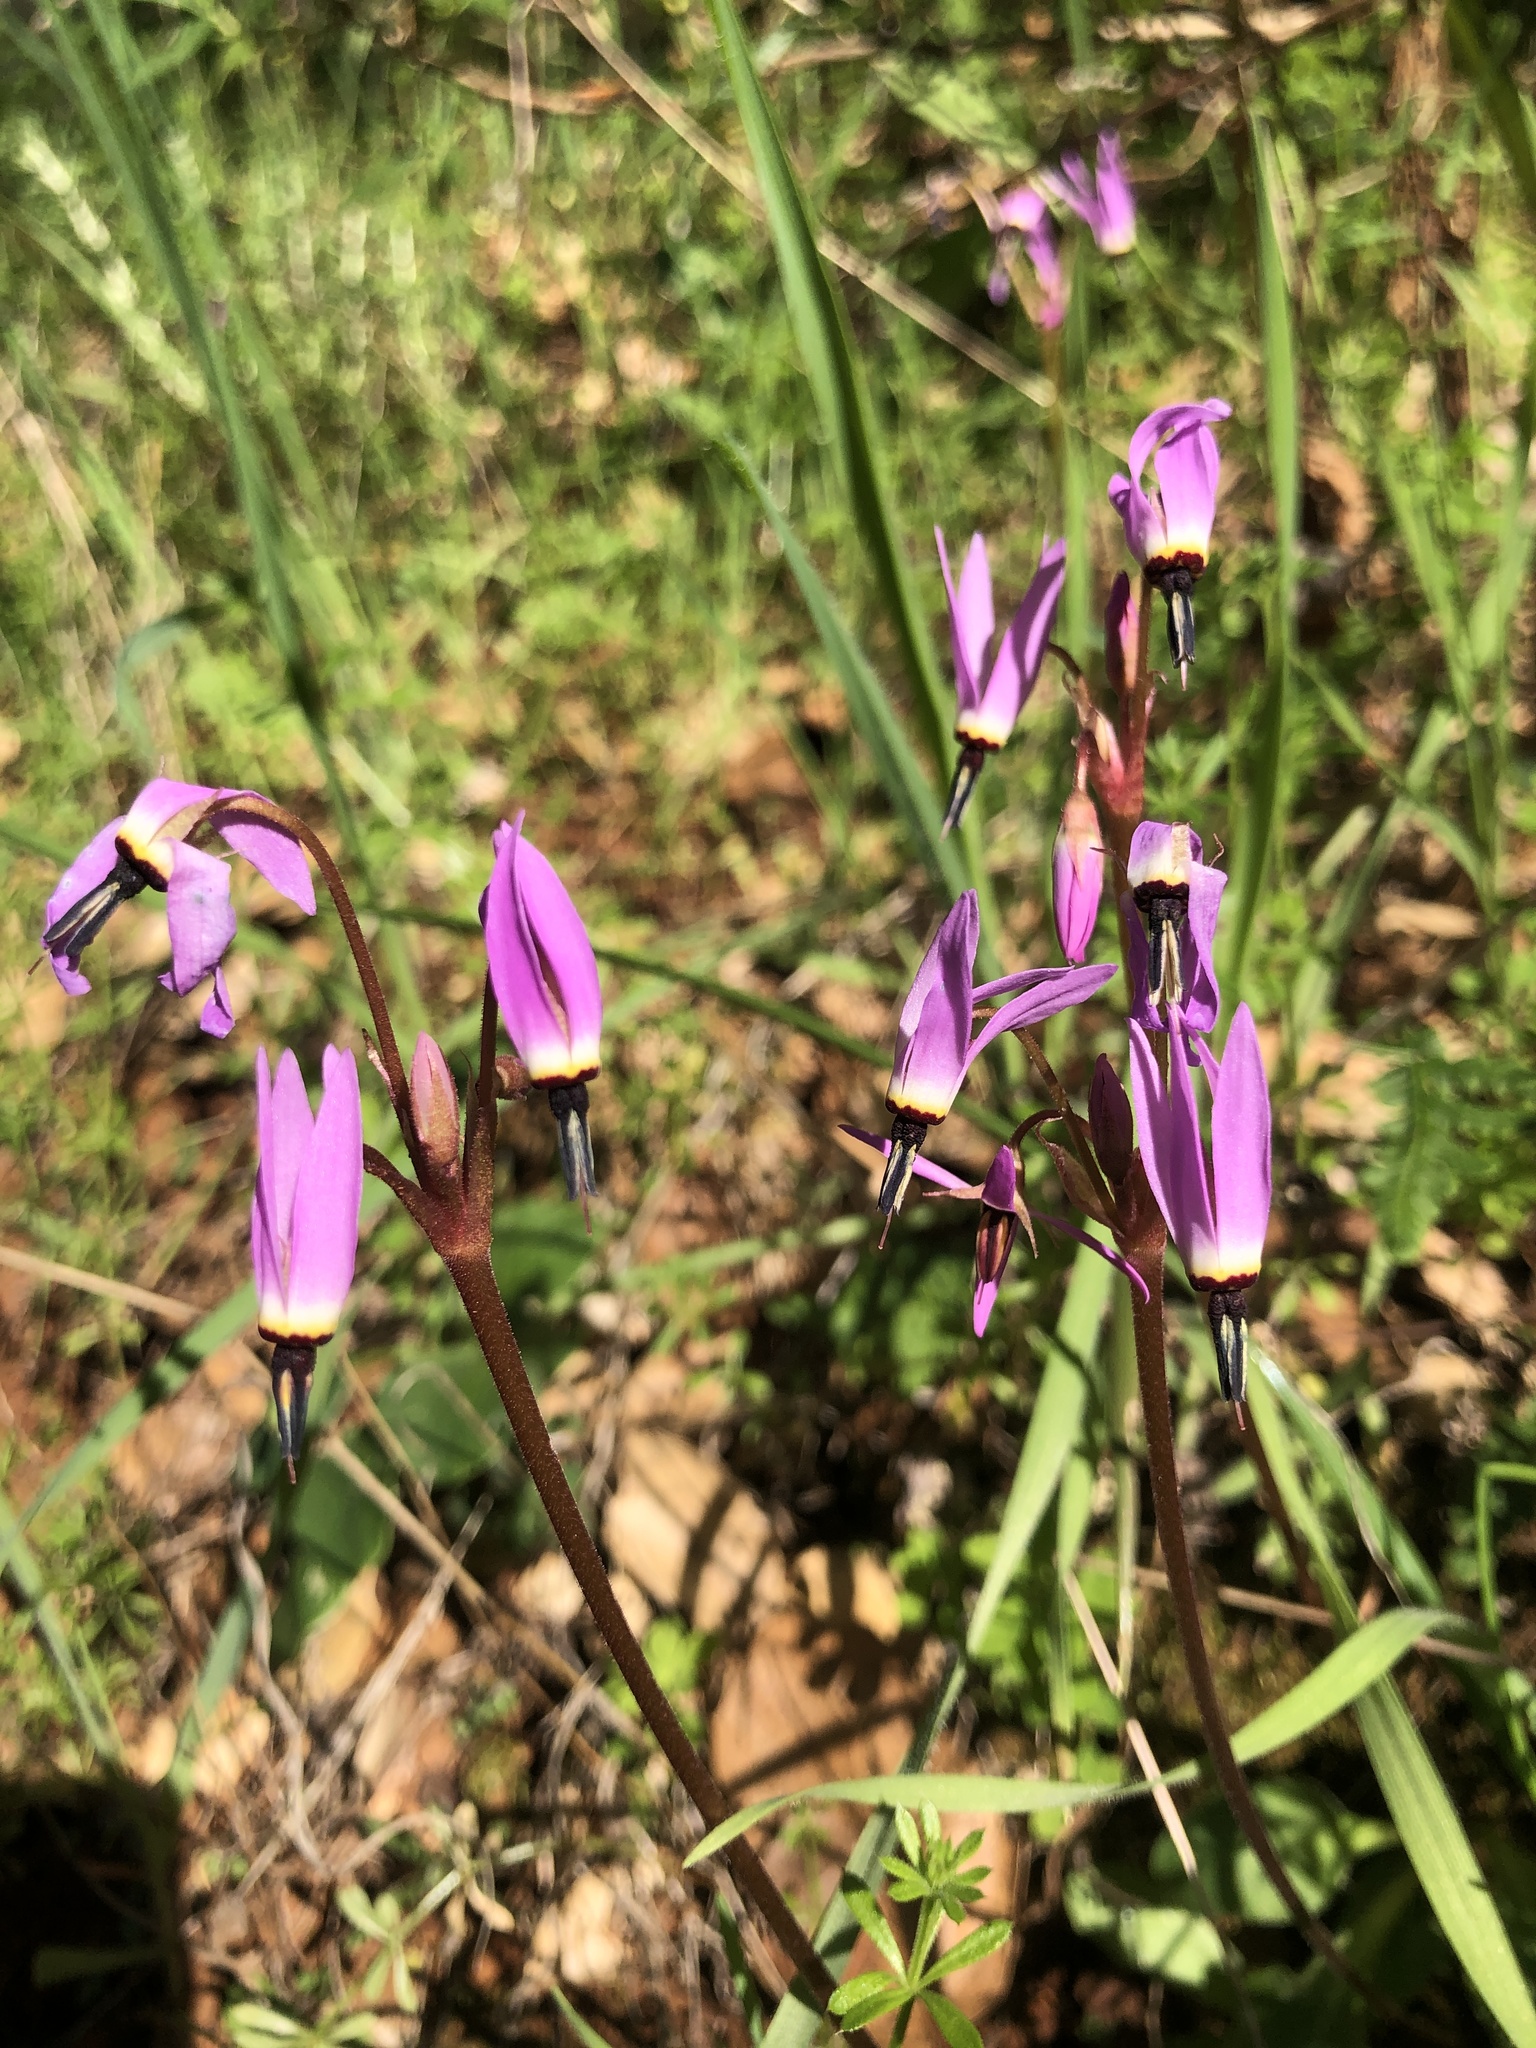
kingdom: Plantae
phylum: Tracheophyta
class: Magnoliopsida
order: Ericales
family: Primulaceae
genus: Dodecatheon
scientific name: Dodecatheon hendersonii
